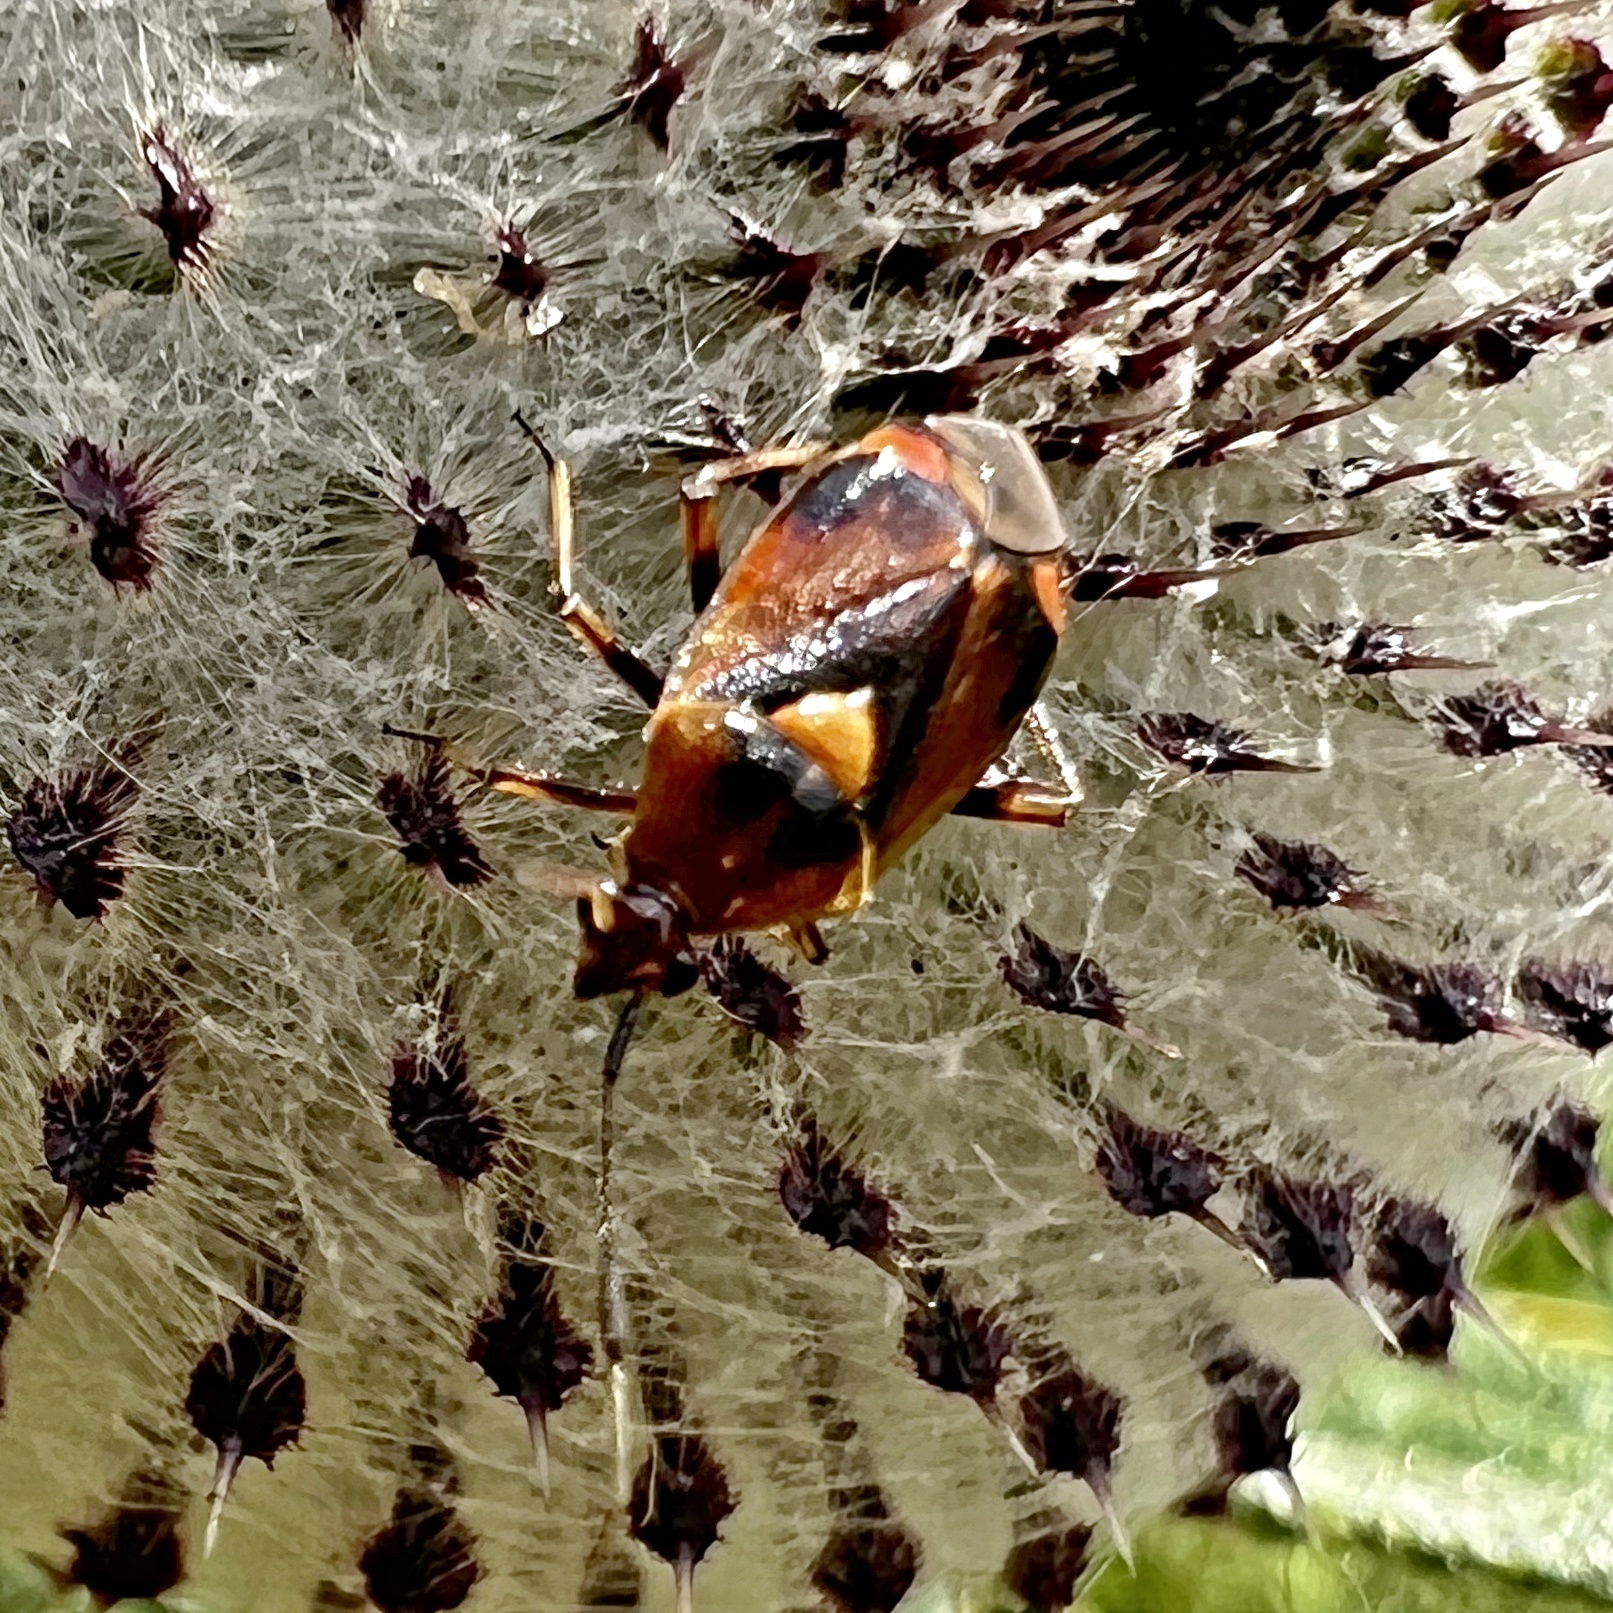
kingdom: Animalia
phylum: Arthropoda
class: Insecta
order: Hemiptera
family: Miridae
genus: Deraeocoris
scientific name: Deraeocoris ruber
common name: Plant bug
